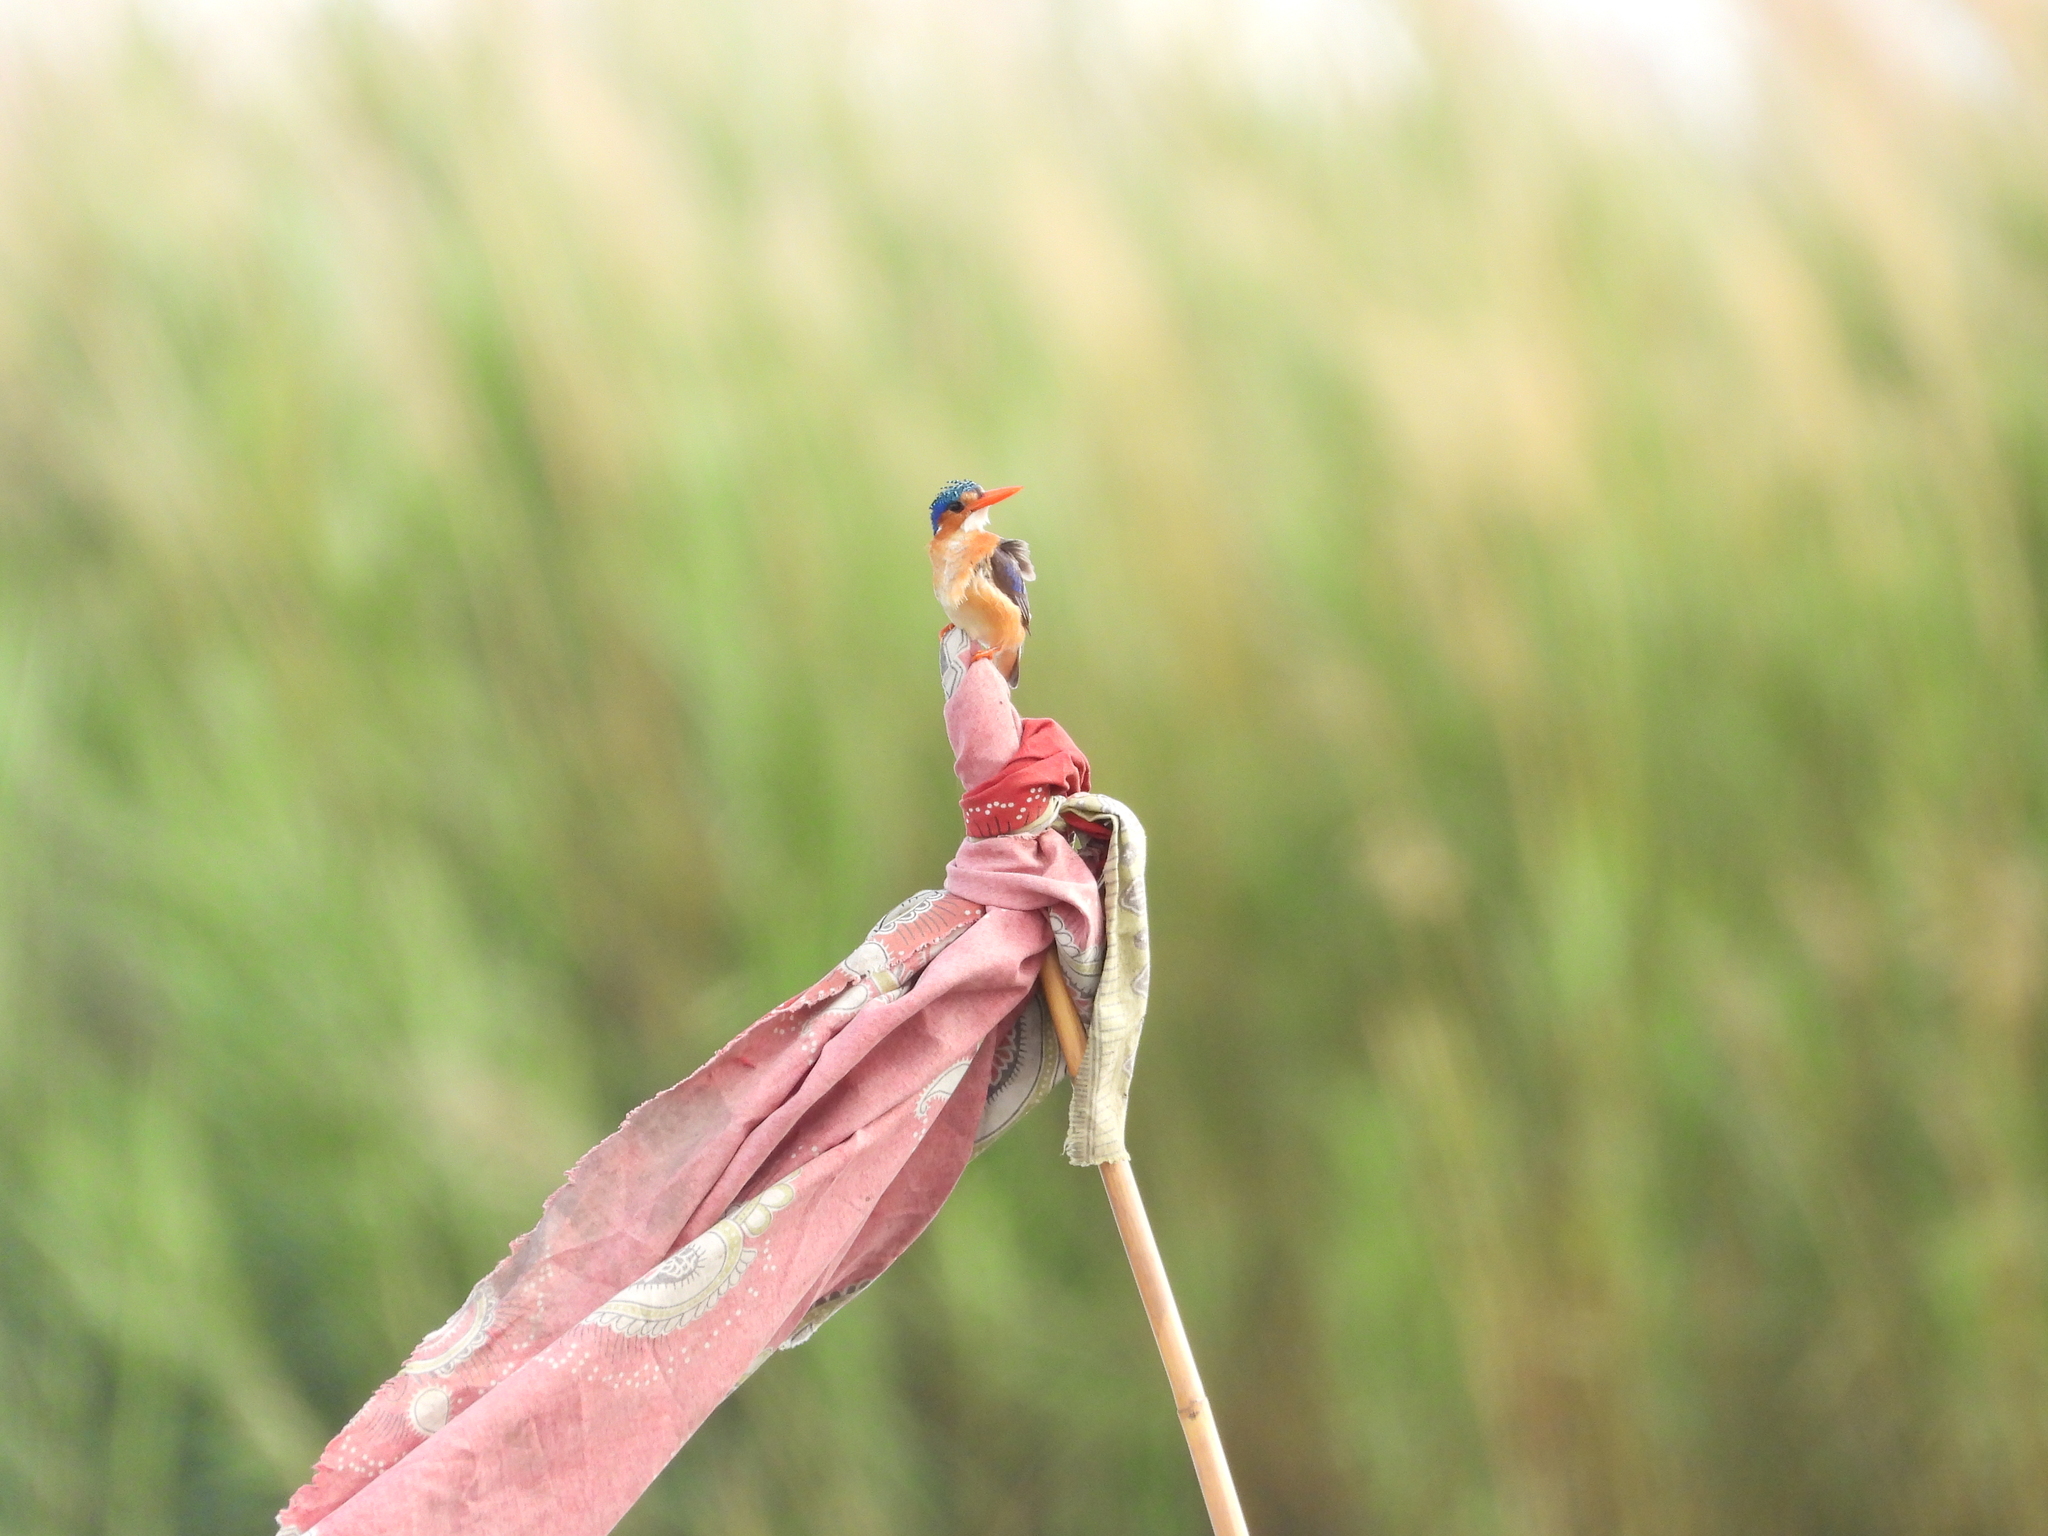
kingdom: Animalia
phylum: Chordata
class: Aves
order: Coraciiformes
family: Alcedinidae
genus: Corythornis
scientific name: Corythornis cristatus
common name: Malachite kingfisher
